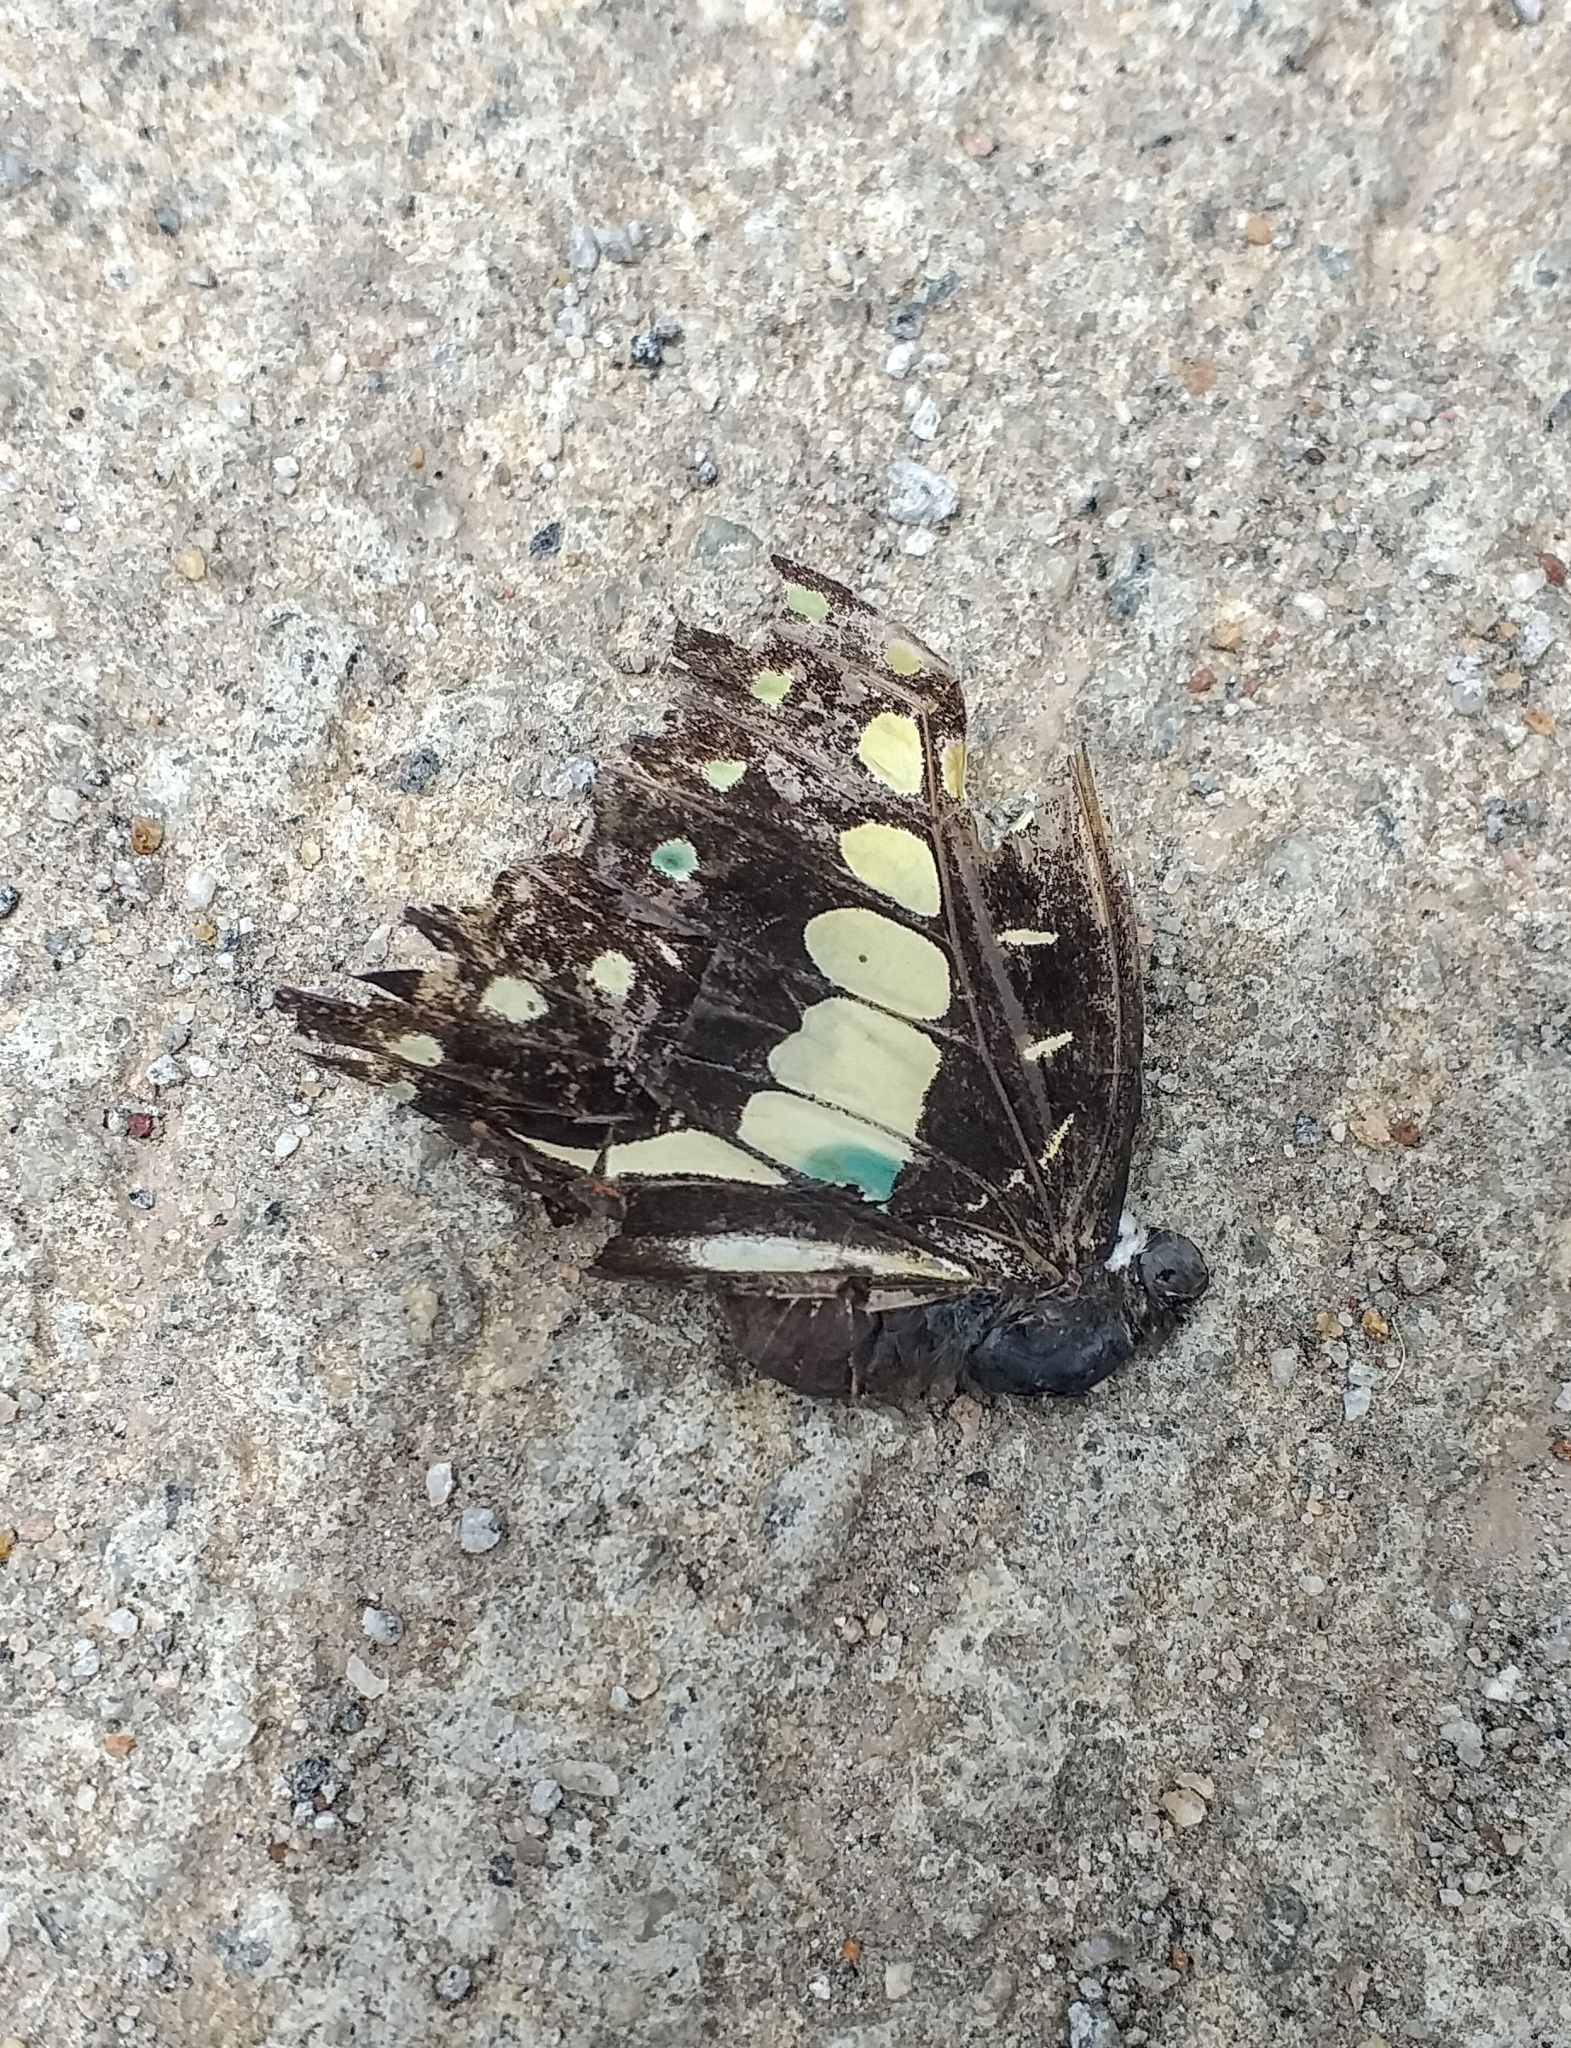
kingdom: Animalia
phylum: Arthropoda
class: Insecta
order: Lepidoptera
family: Papilionidae
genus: Graphium
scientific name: Graphium doson
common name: Common jay
